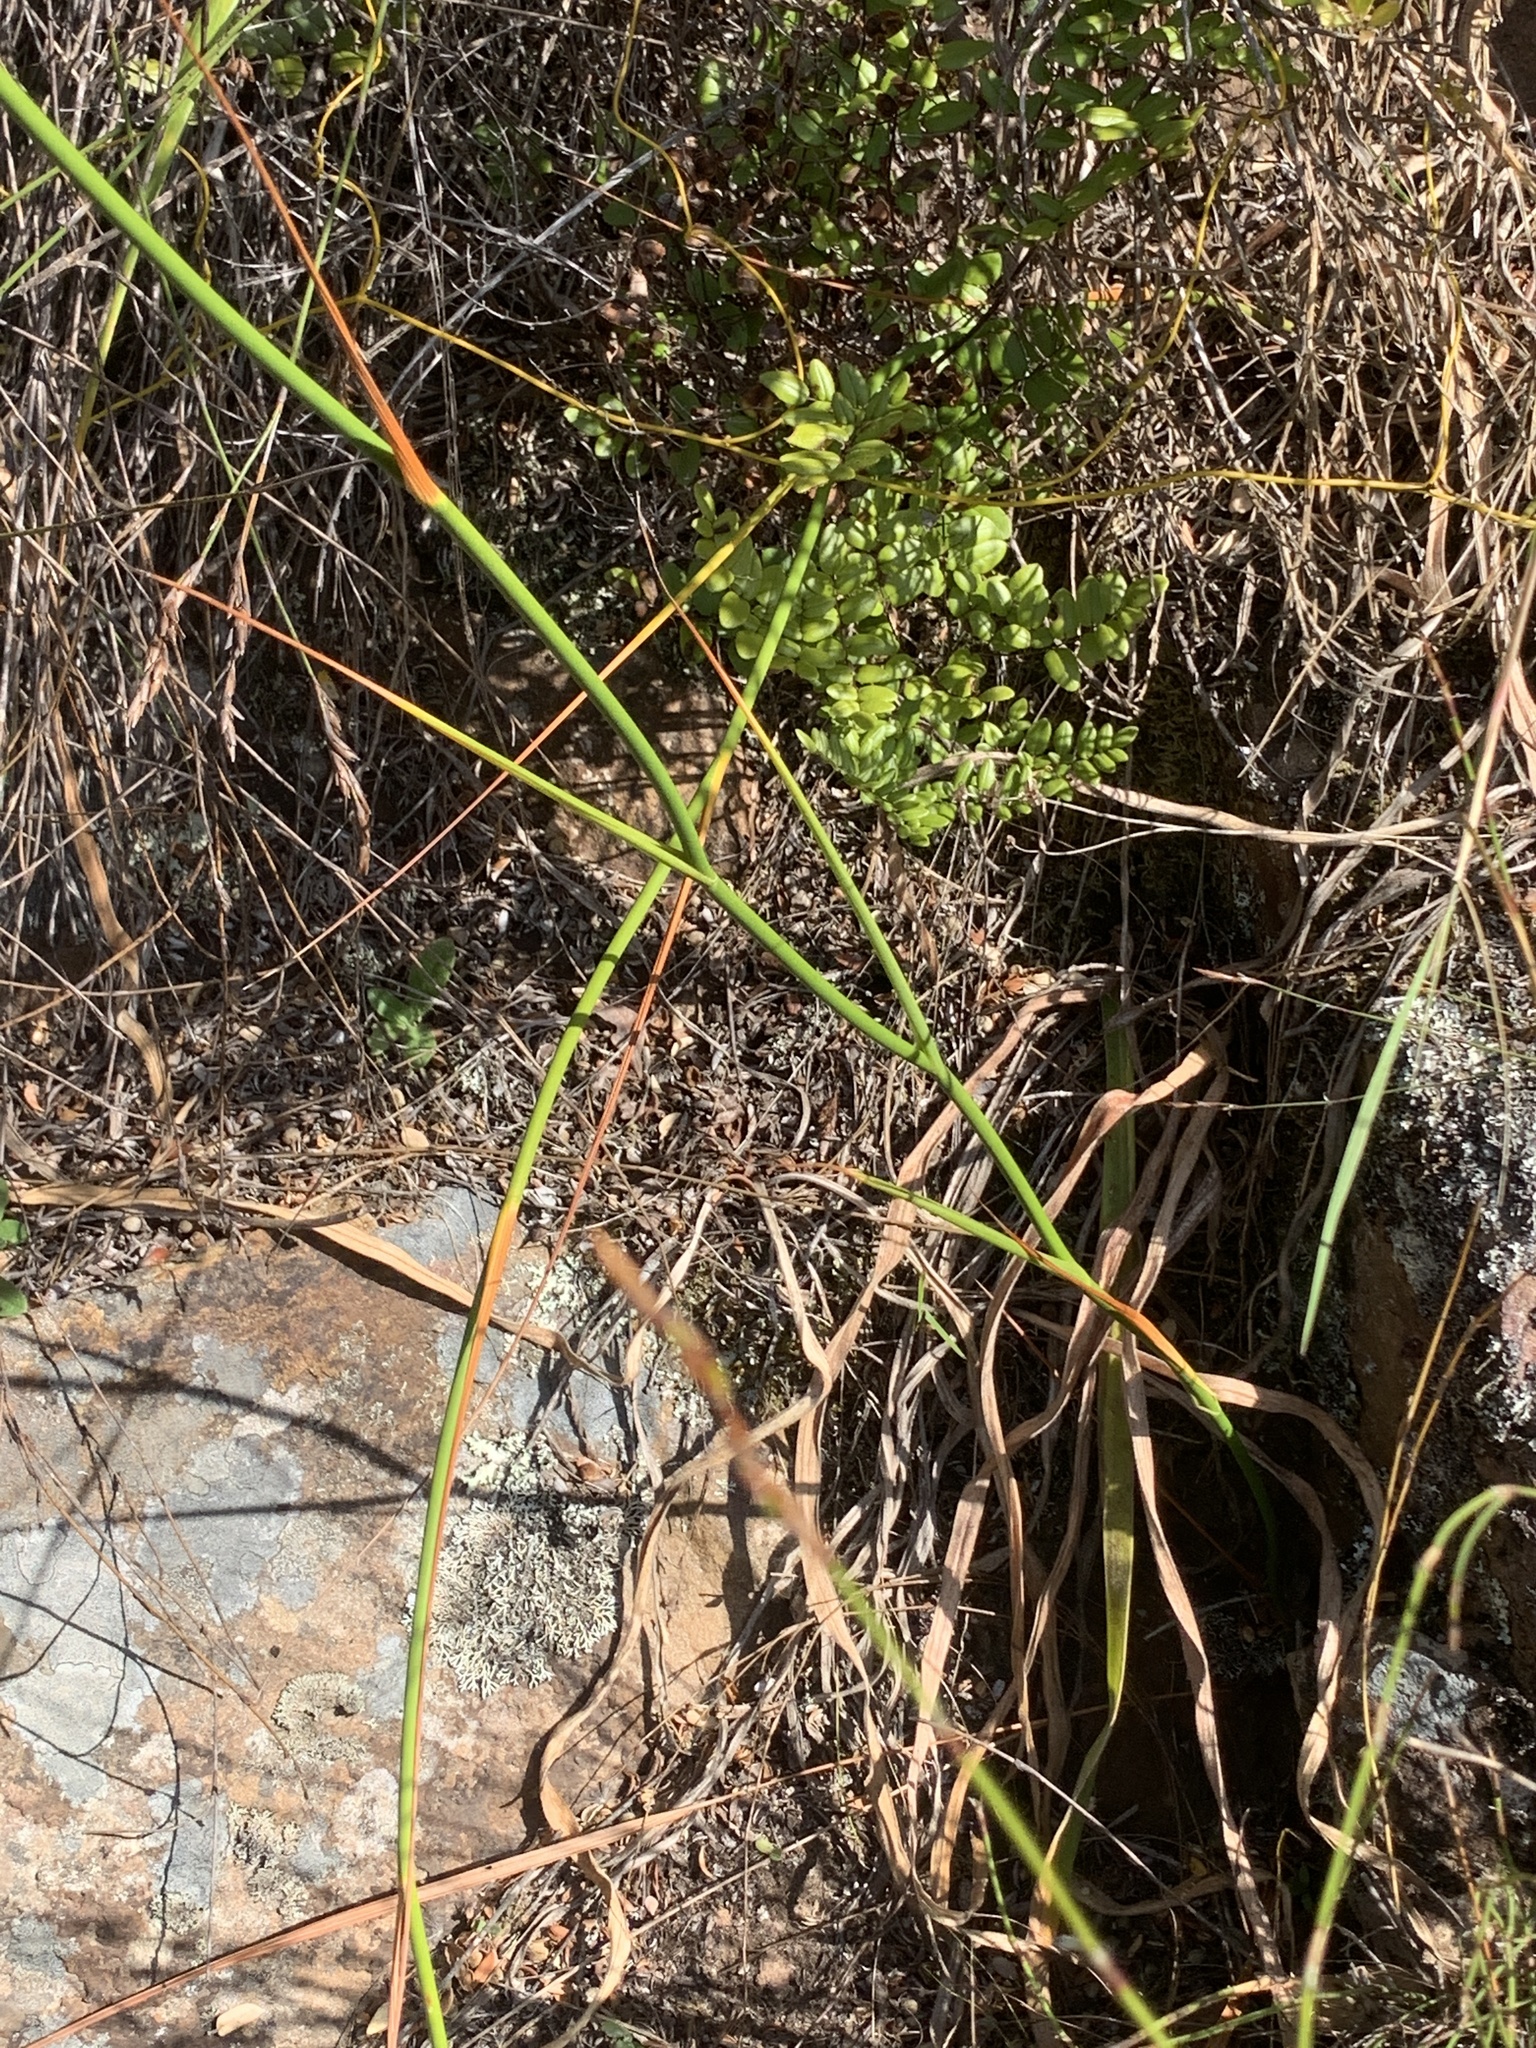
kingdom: Plantae
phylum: Tracheophyta
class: Liliopsida
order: Asparagales
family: Iridaceae
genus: Tritoniopsis
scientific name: Tritoniopsis triticea
